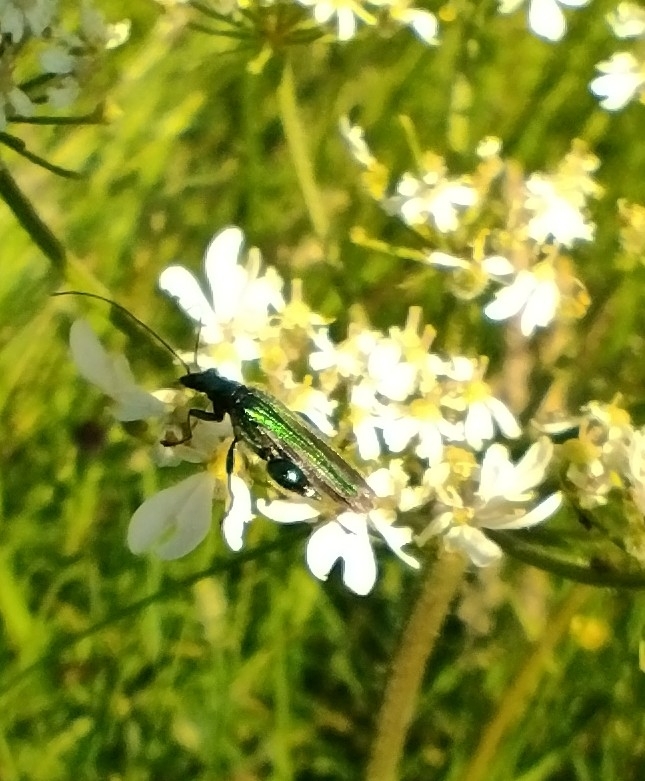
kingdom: Animalia
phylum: Arthropoda
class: Insecta
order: Coleoptera
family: Oedemeridae
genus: Oedemera
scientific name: Oedemera nobilis
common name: Swollen-thighed beetle
